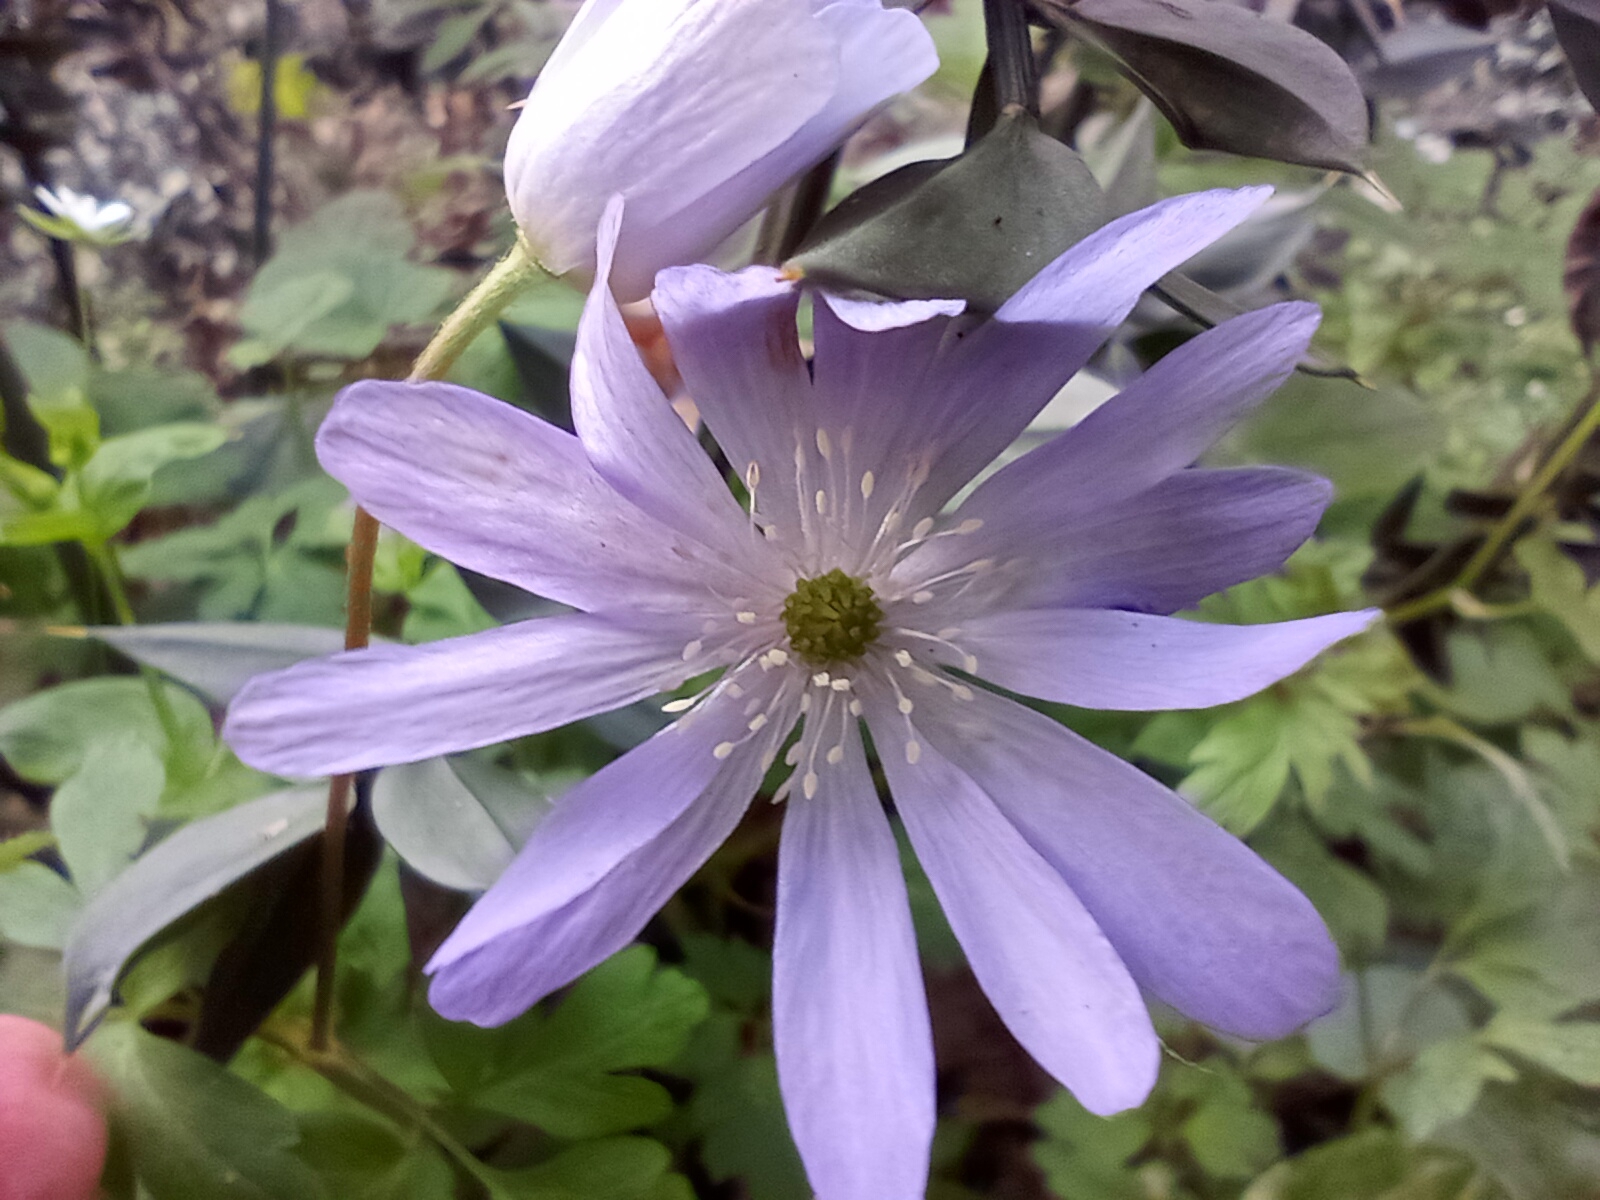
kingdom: Plantae
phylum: Tracheophyta
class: Magnoliopsida
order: Ranunculales
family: Ranunculaceae
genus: Anemone
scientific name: Anemone apennina
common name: Blue anemone
